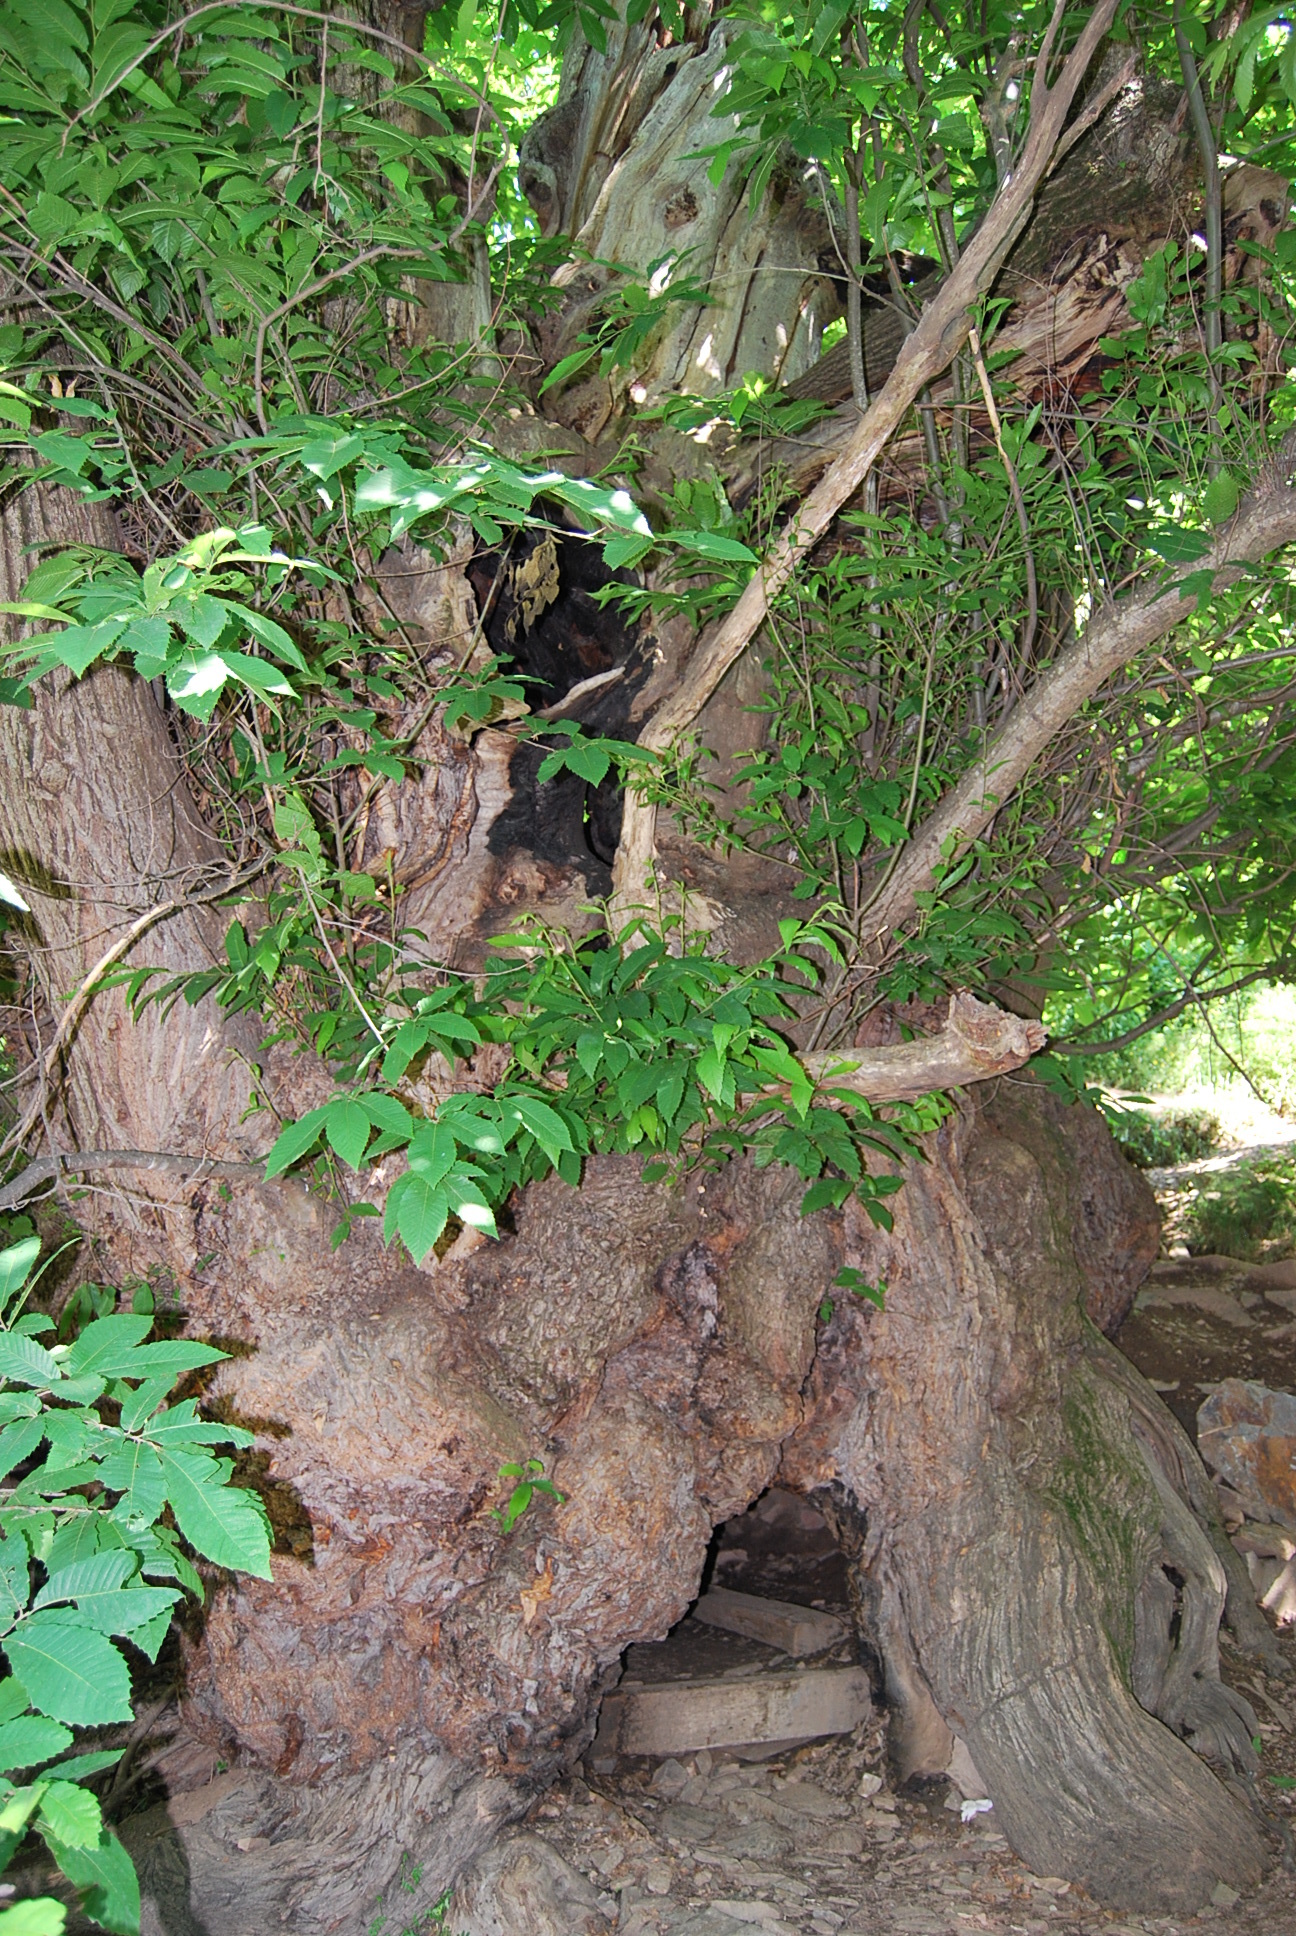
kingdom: Plantae
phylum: Tracheophyta
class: Magnoliopsida
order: Fagales
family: Fagaceae
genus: Castanea
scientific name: Castanea sativa
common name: Sweet chestnut
